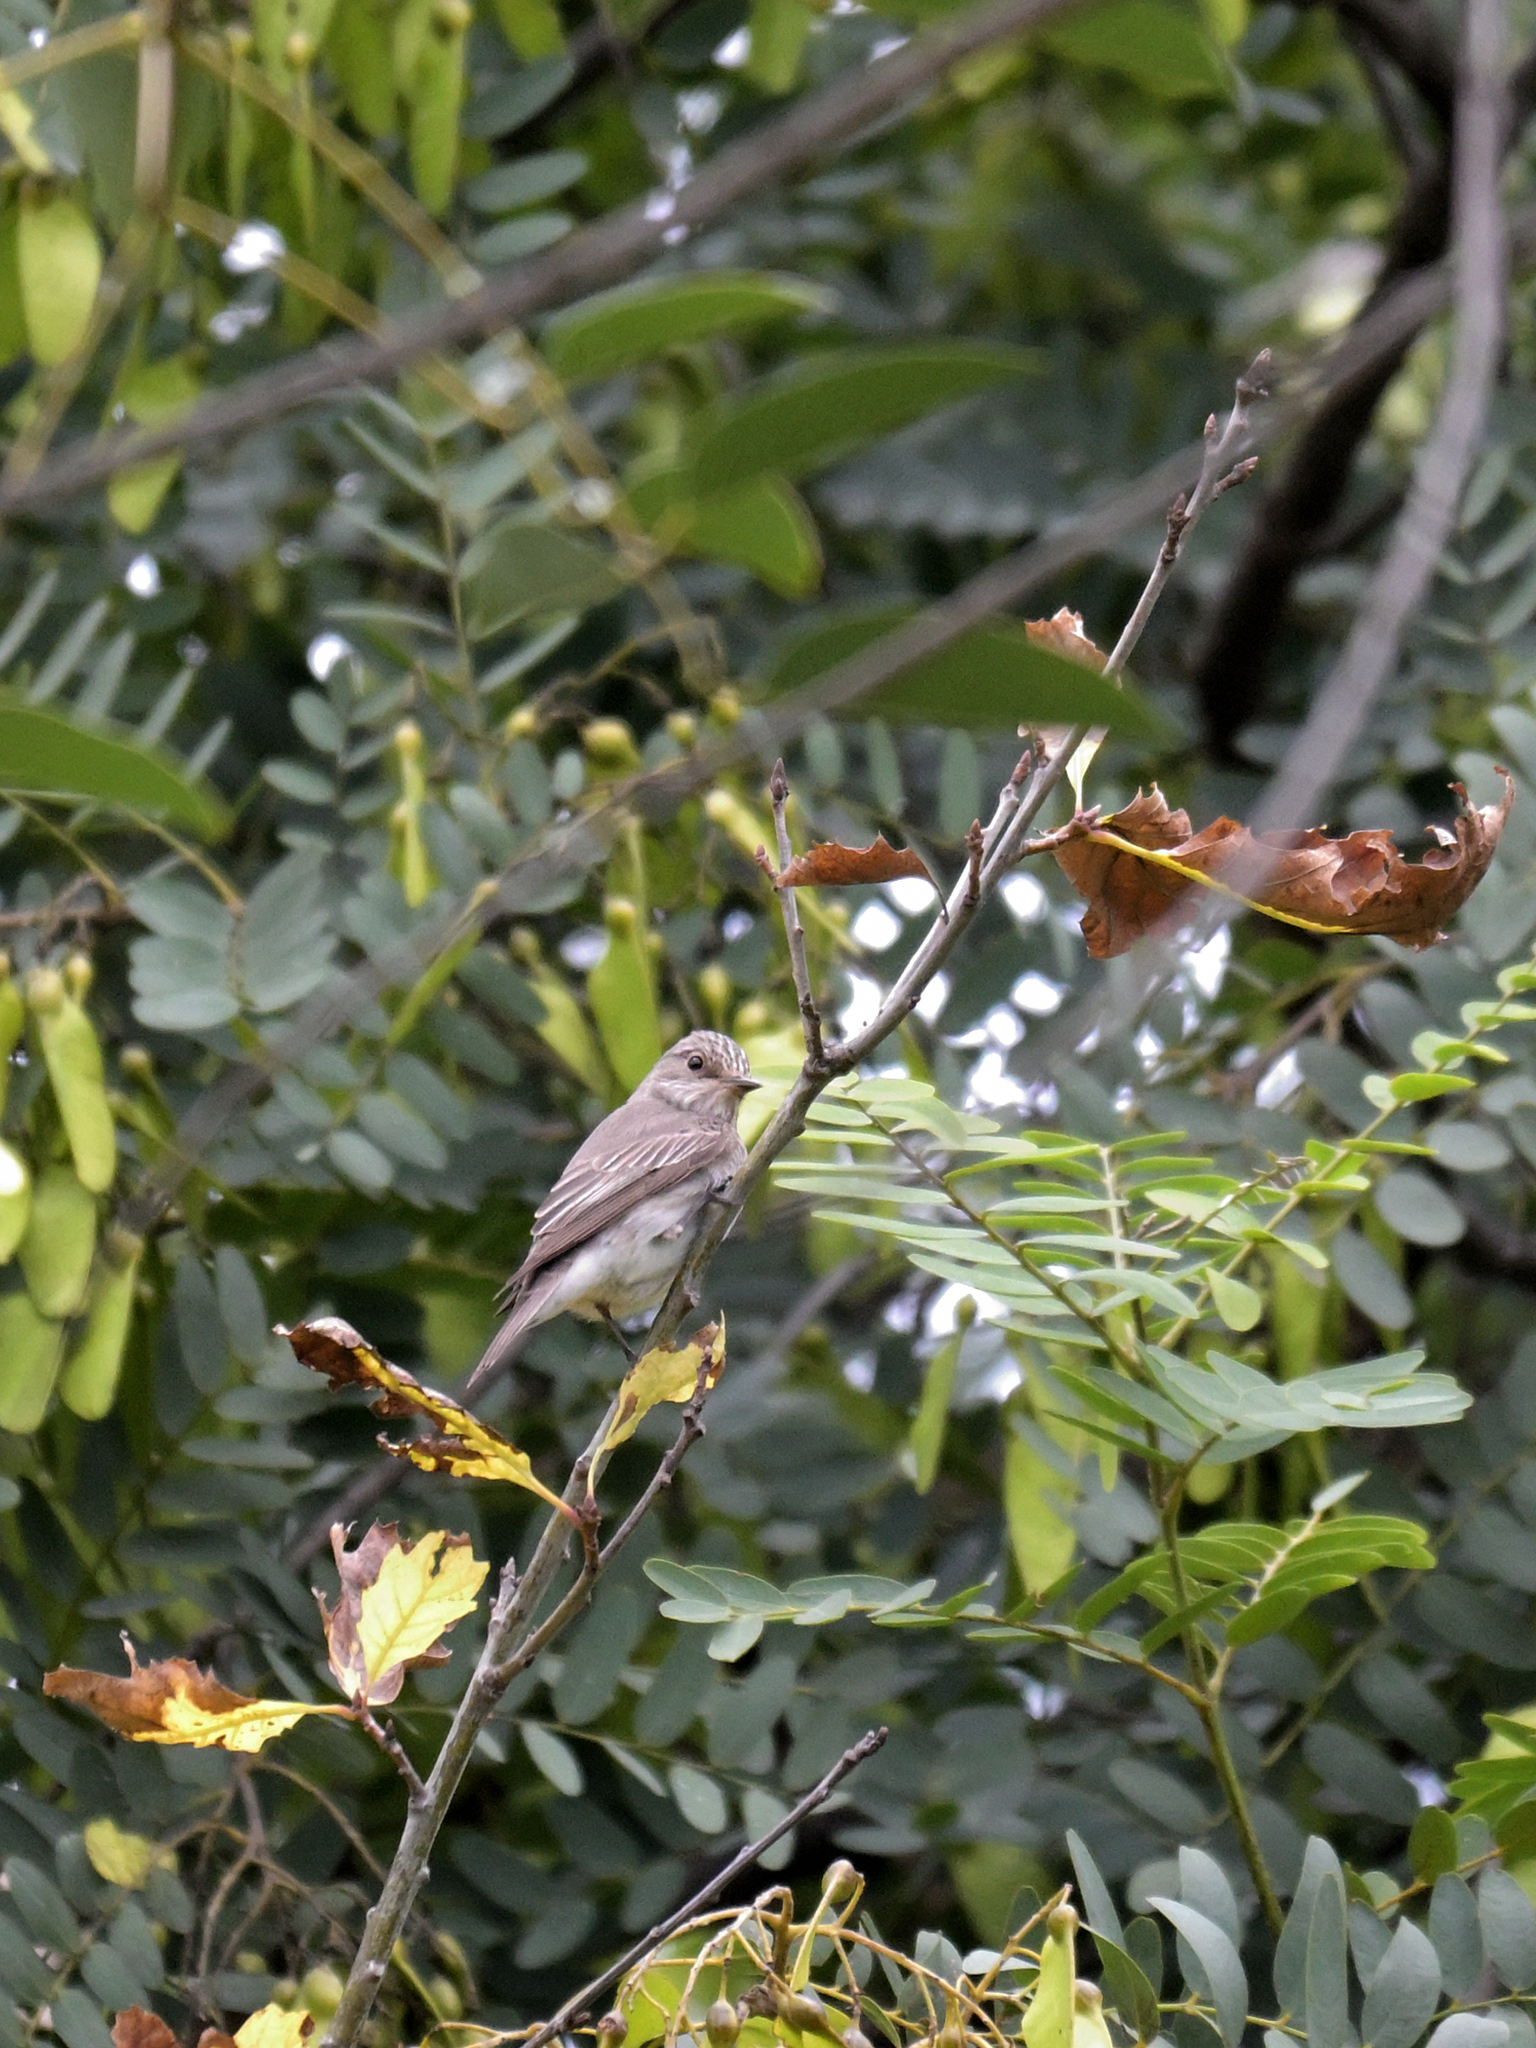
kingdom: Animalia
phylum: Chordata
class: Aves
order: Passeriformes
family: Muscicapidae
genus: Muscicapa
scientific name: Muscicapa striata
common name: Spotted flycatcher
